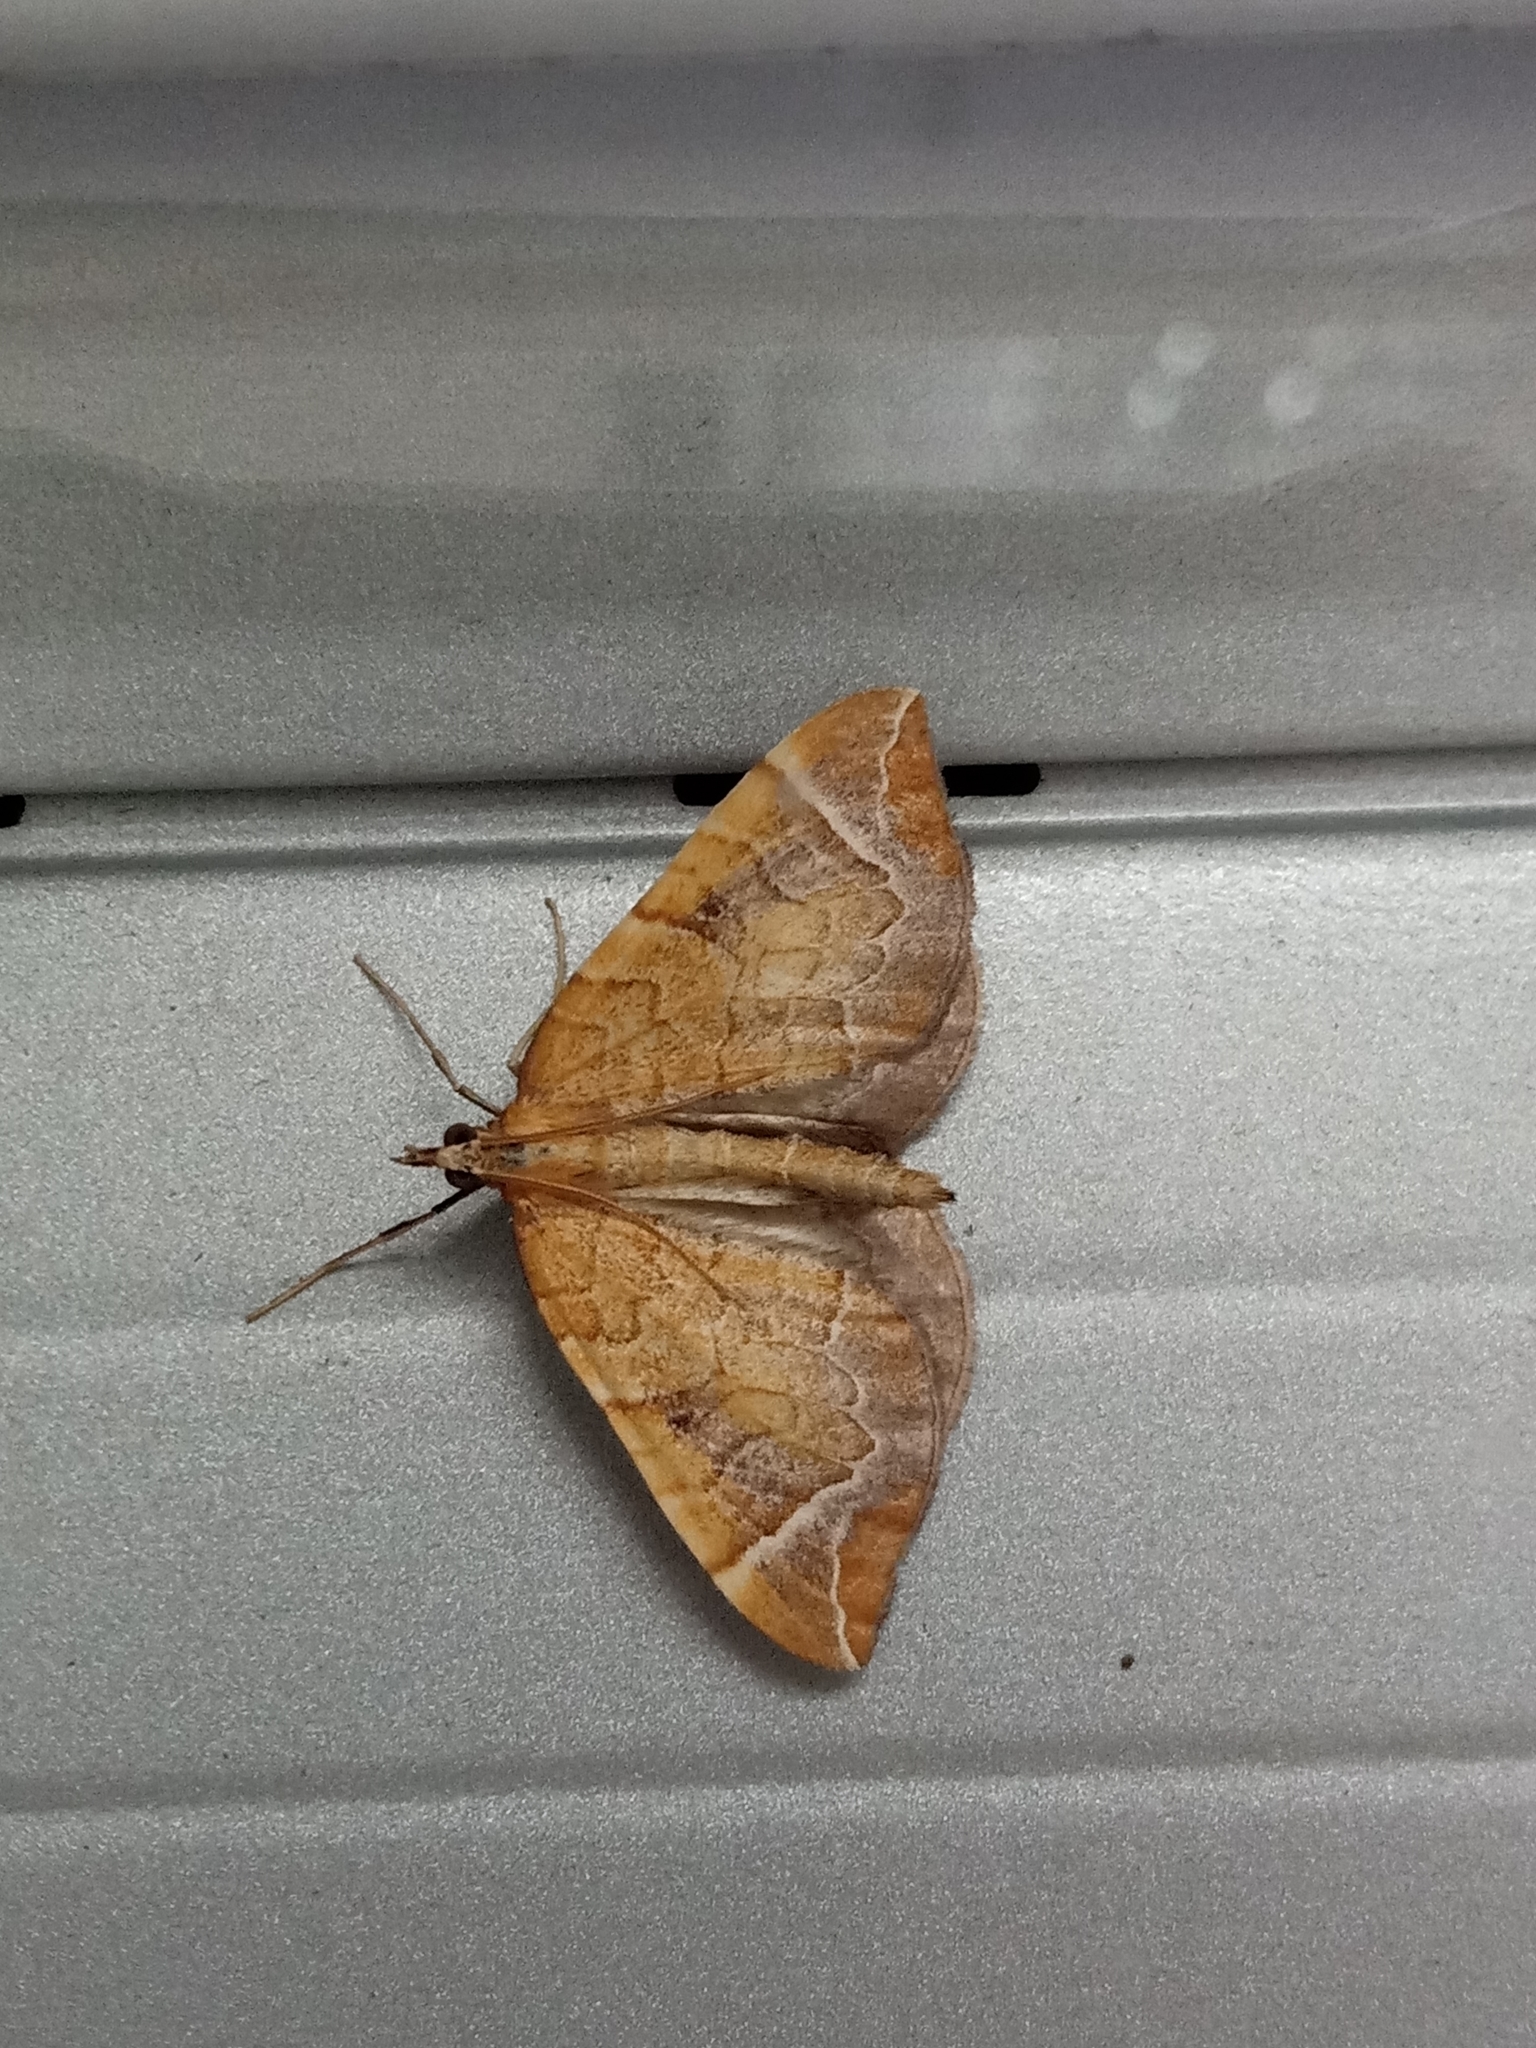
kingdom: Animalia
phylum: Arthropoda
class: Insecta
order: Lepidoptera
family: Geometridae
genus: Eulithis
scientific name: Eulithis testata
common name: Chevron
